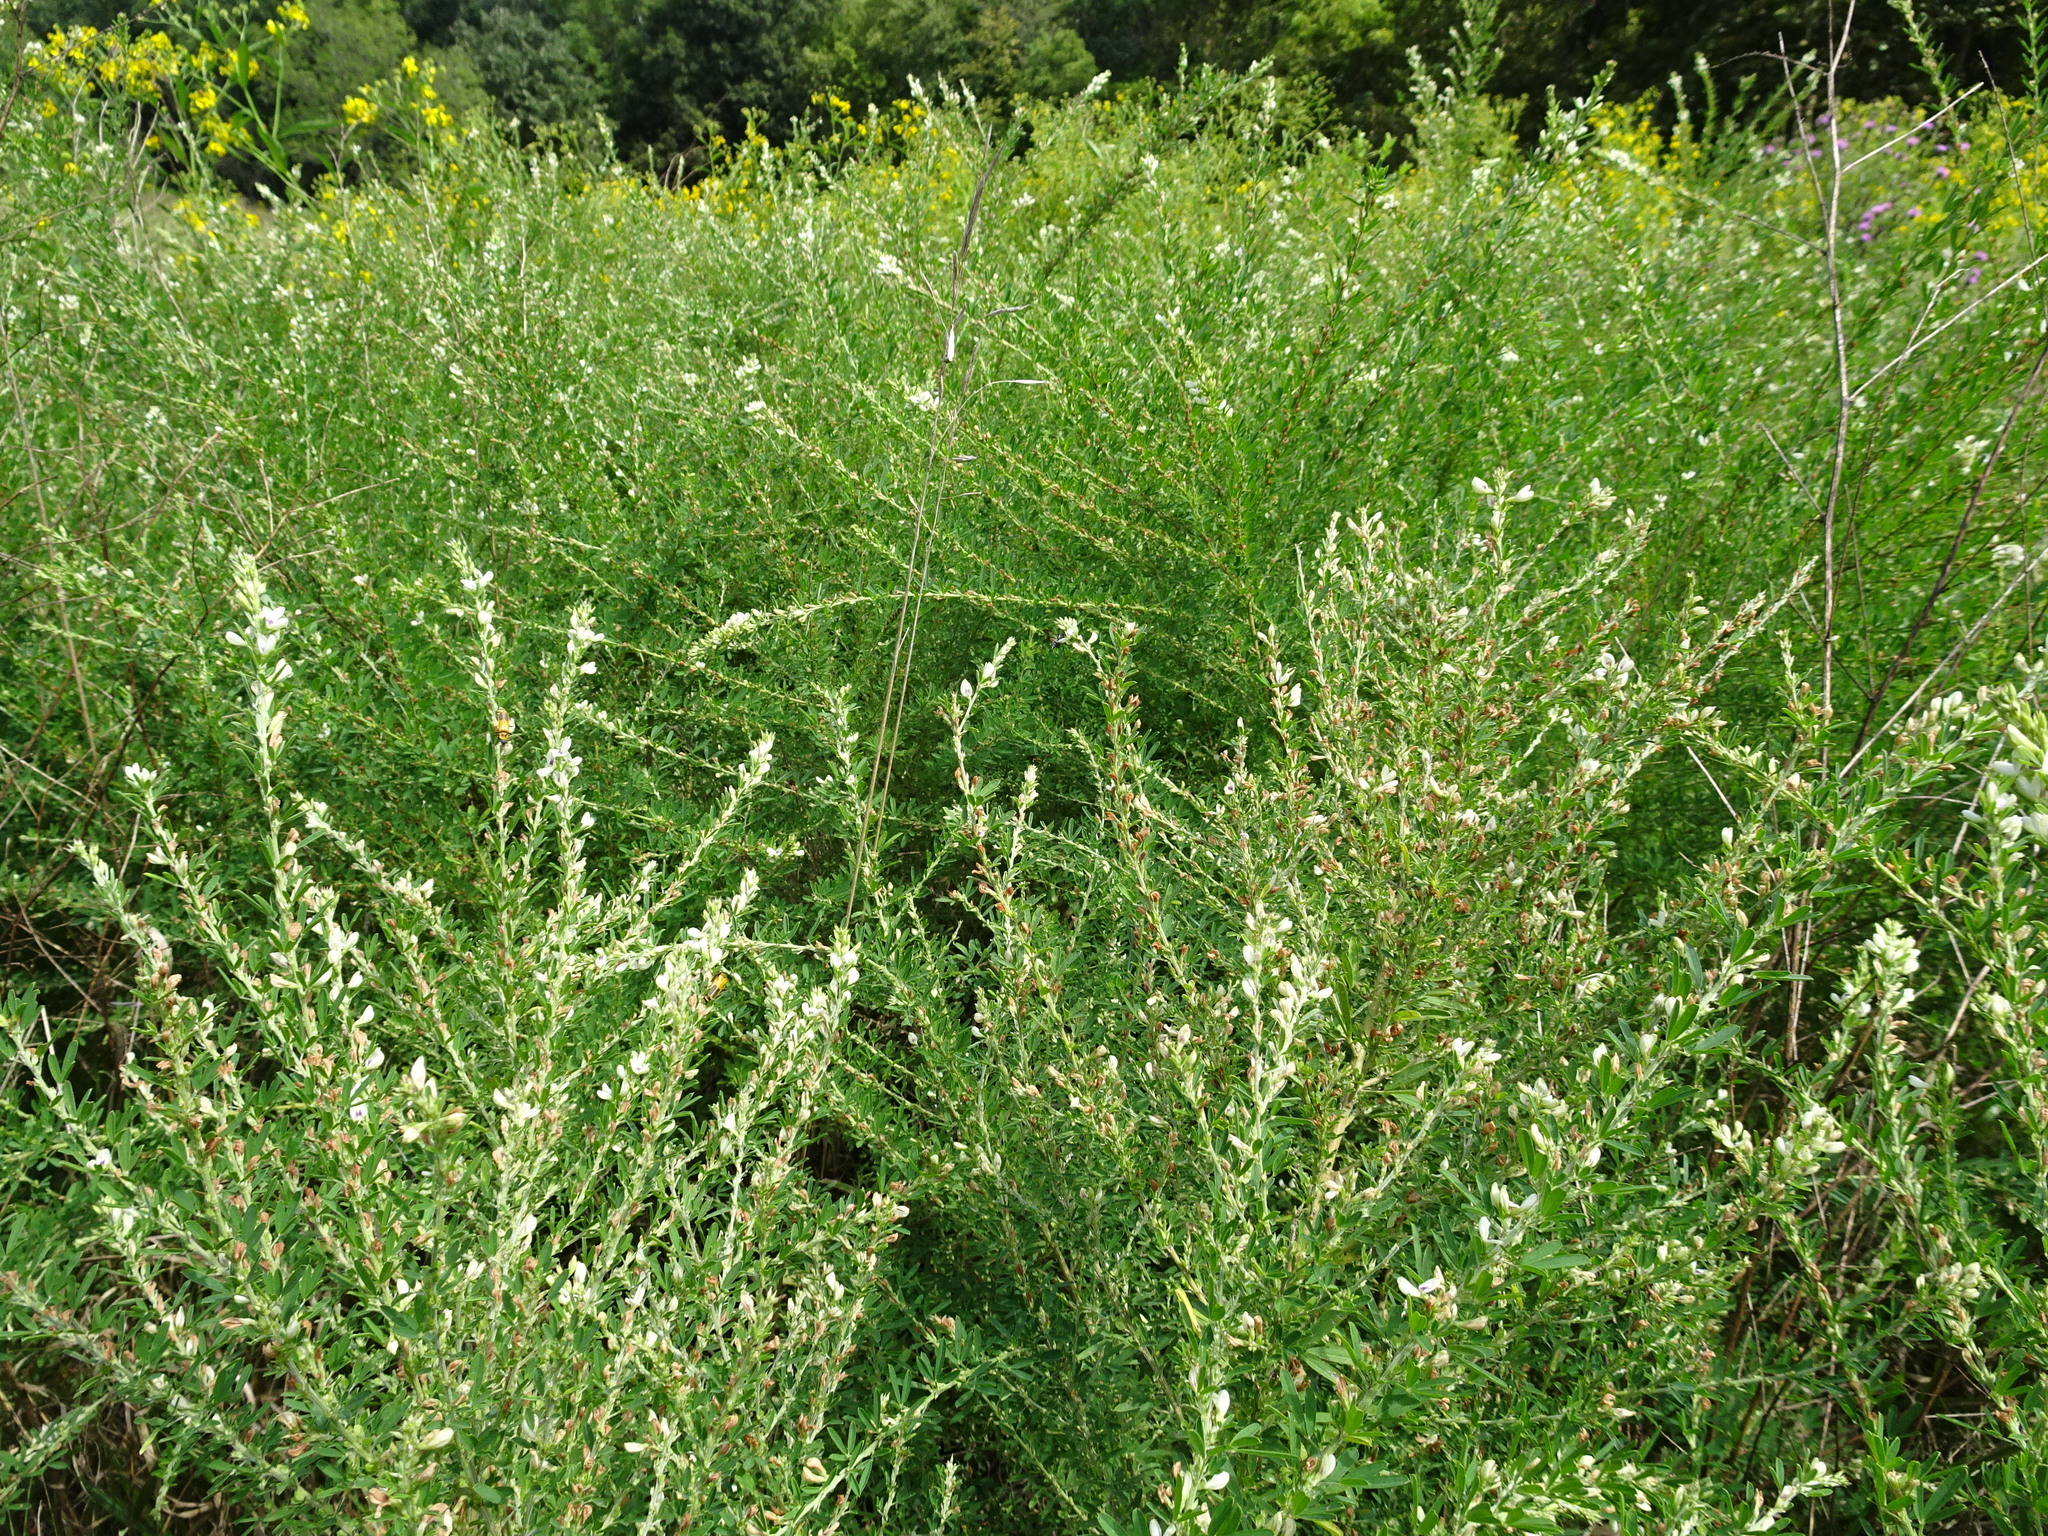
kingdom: Plantae
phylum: Tracheophyta
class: Magnoliopsida
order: Fabales
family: Fabaceae
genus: Lespedeza
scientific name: Lespedeza cuneata
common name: Chinese bush-clover
